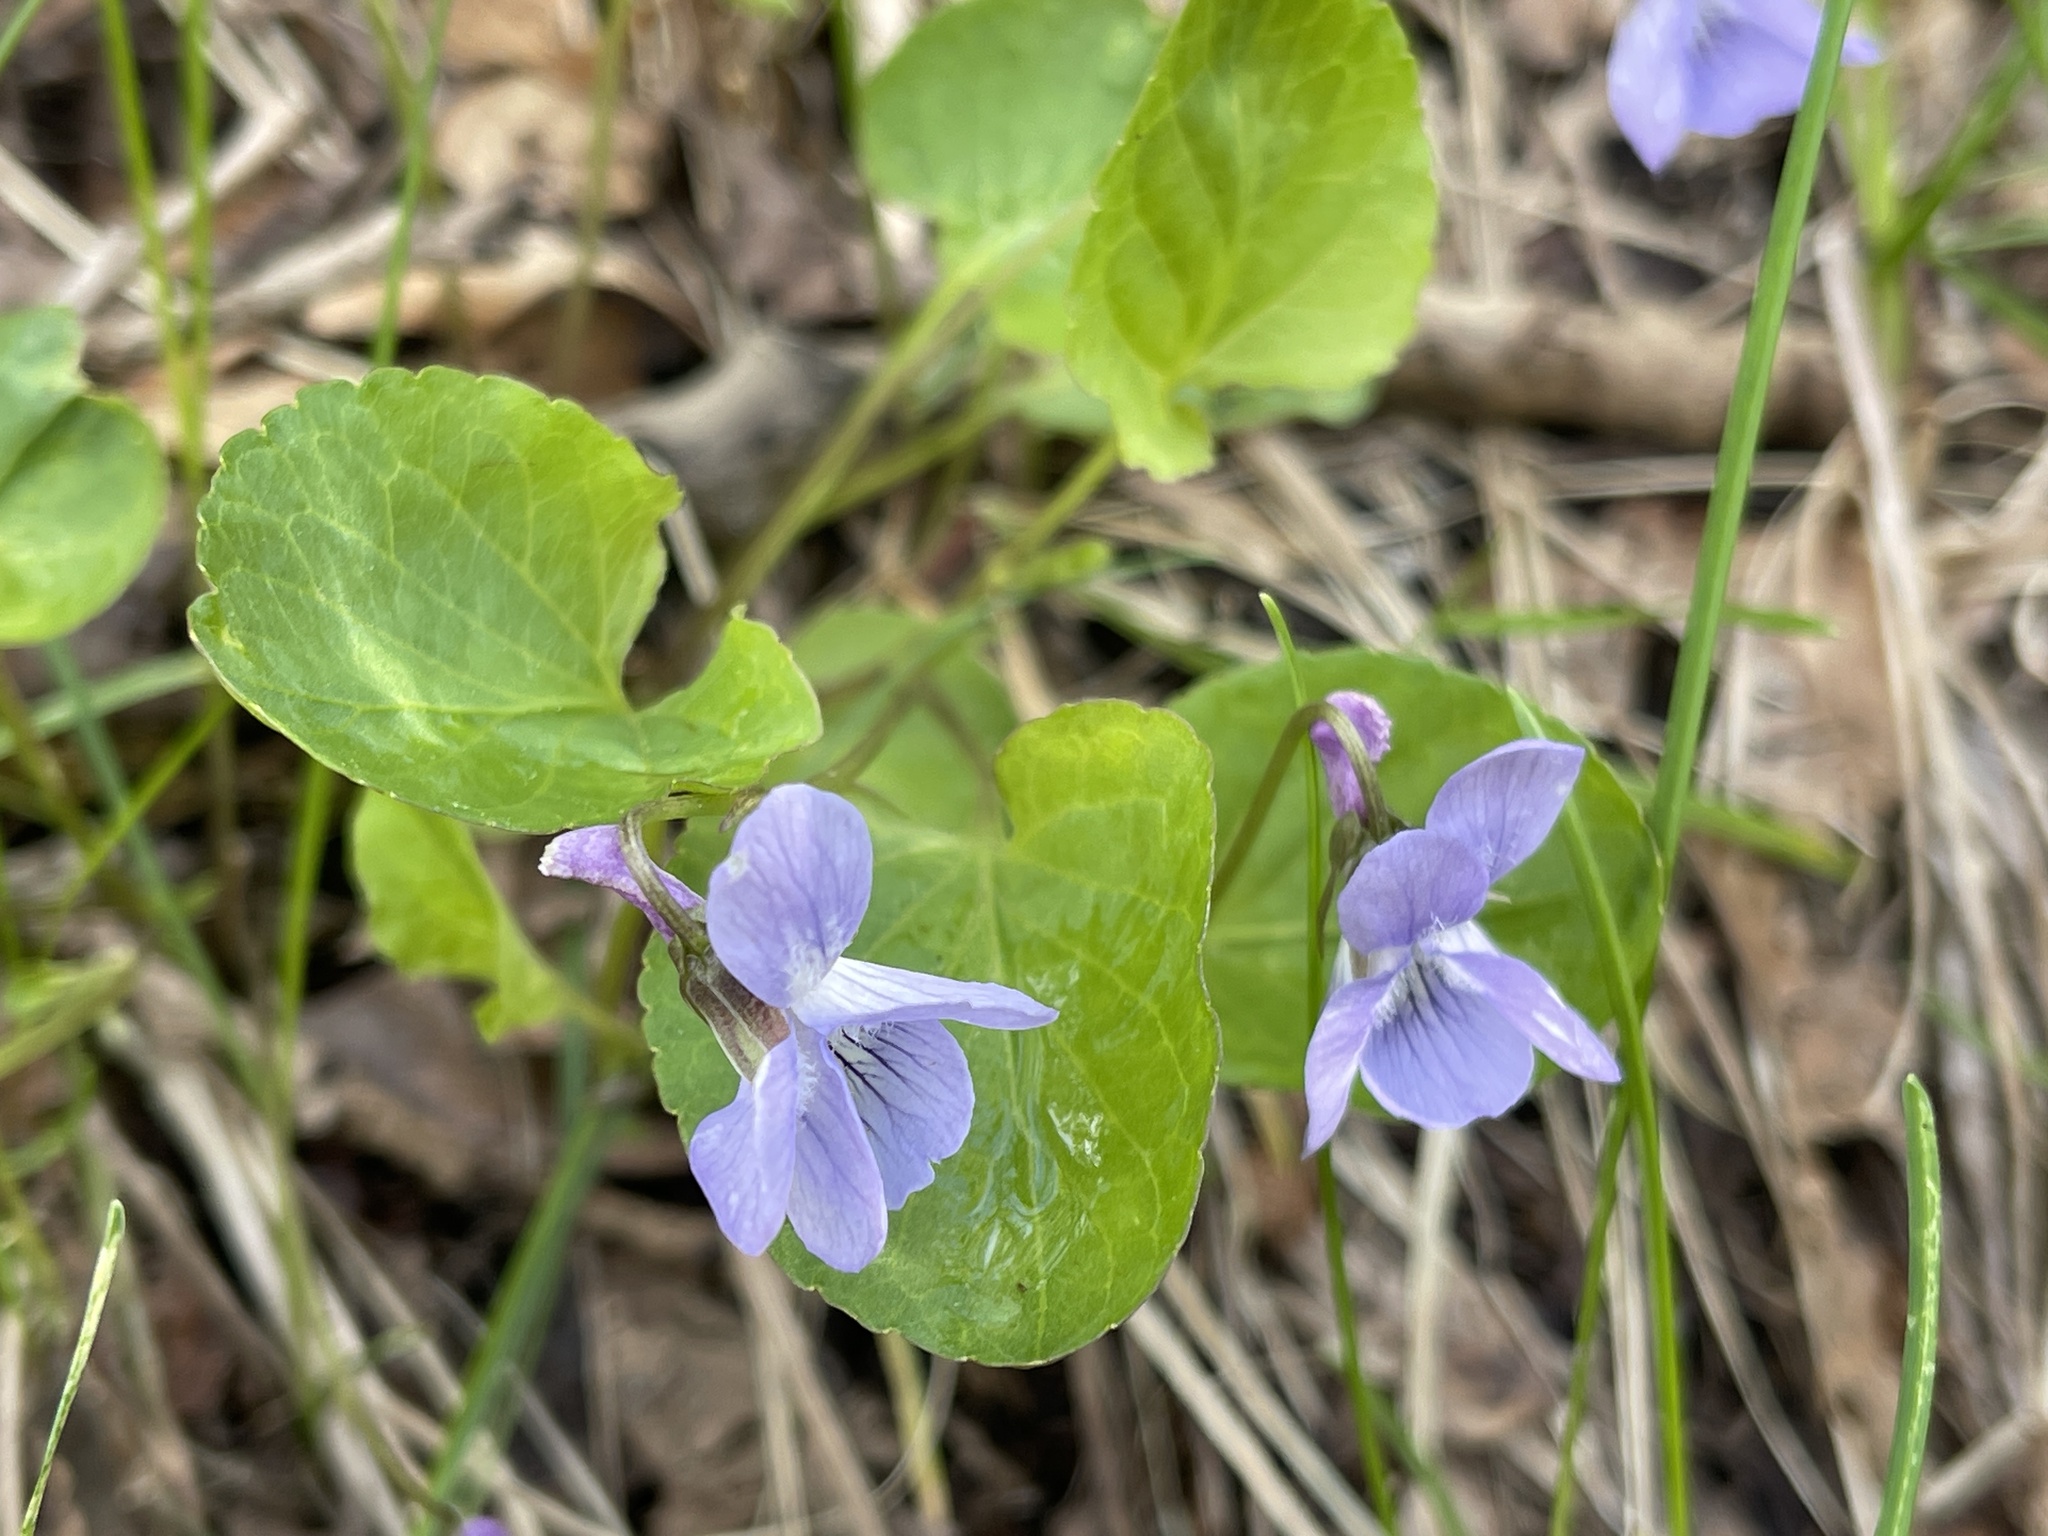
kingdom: Plantae
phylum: Tracheophyta
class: Magnoliopsida
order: Malpighiales
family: Violaceae
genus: Viola
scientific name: Viola adunca
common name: Sand violet
